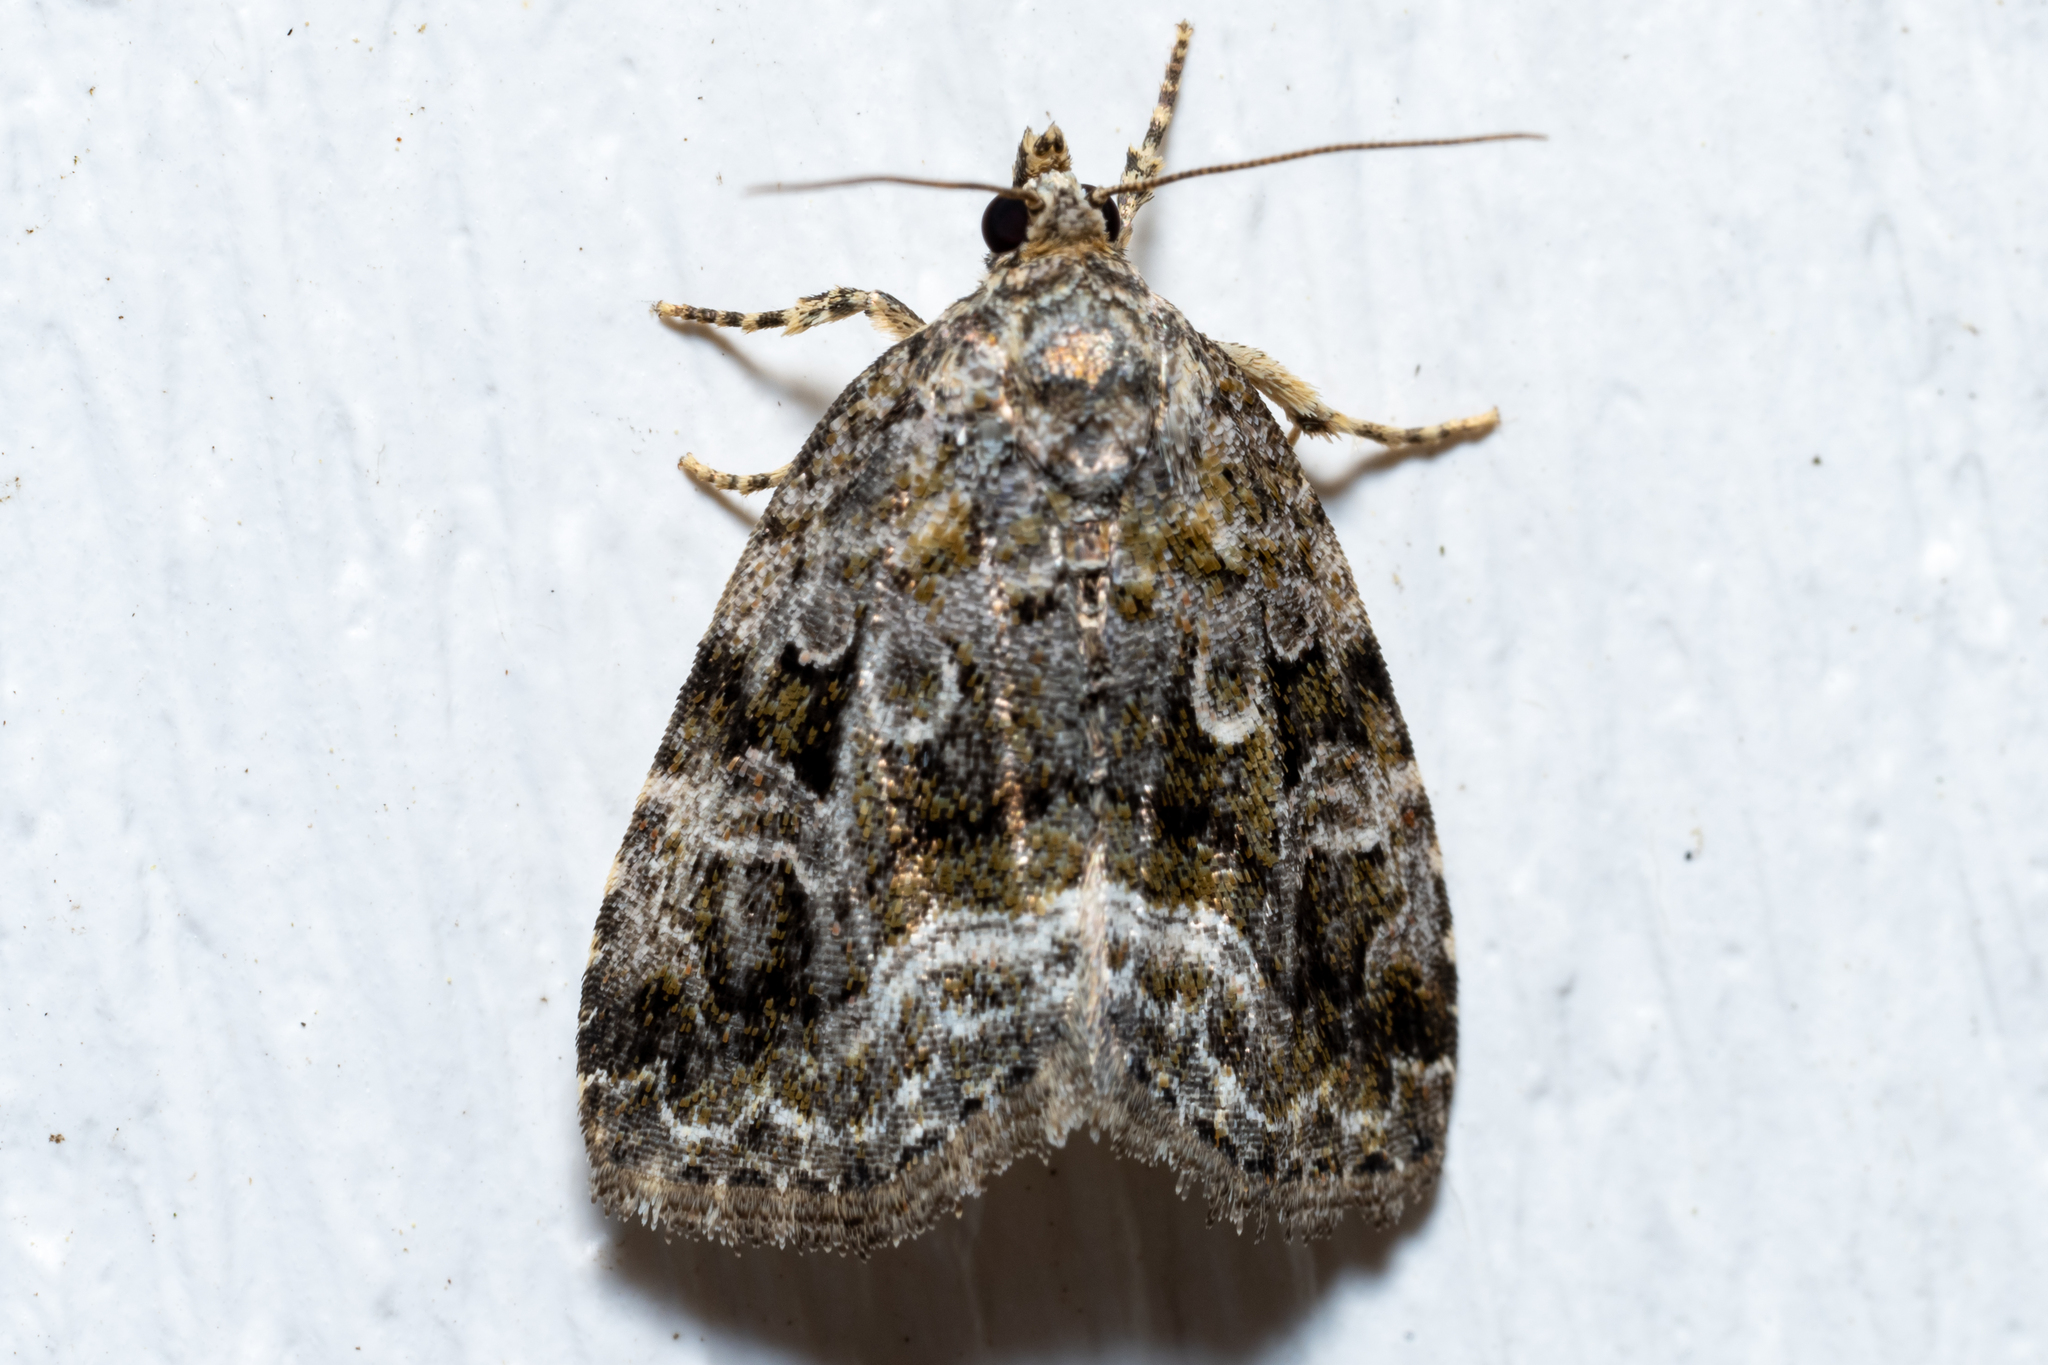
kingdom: Animalia
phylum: Arthropoda
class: Insecta
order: Lepidoptera
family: Noctuidae
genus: Protodeltote
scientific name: Protodeltote muscosula
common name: Large mossy glyph
